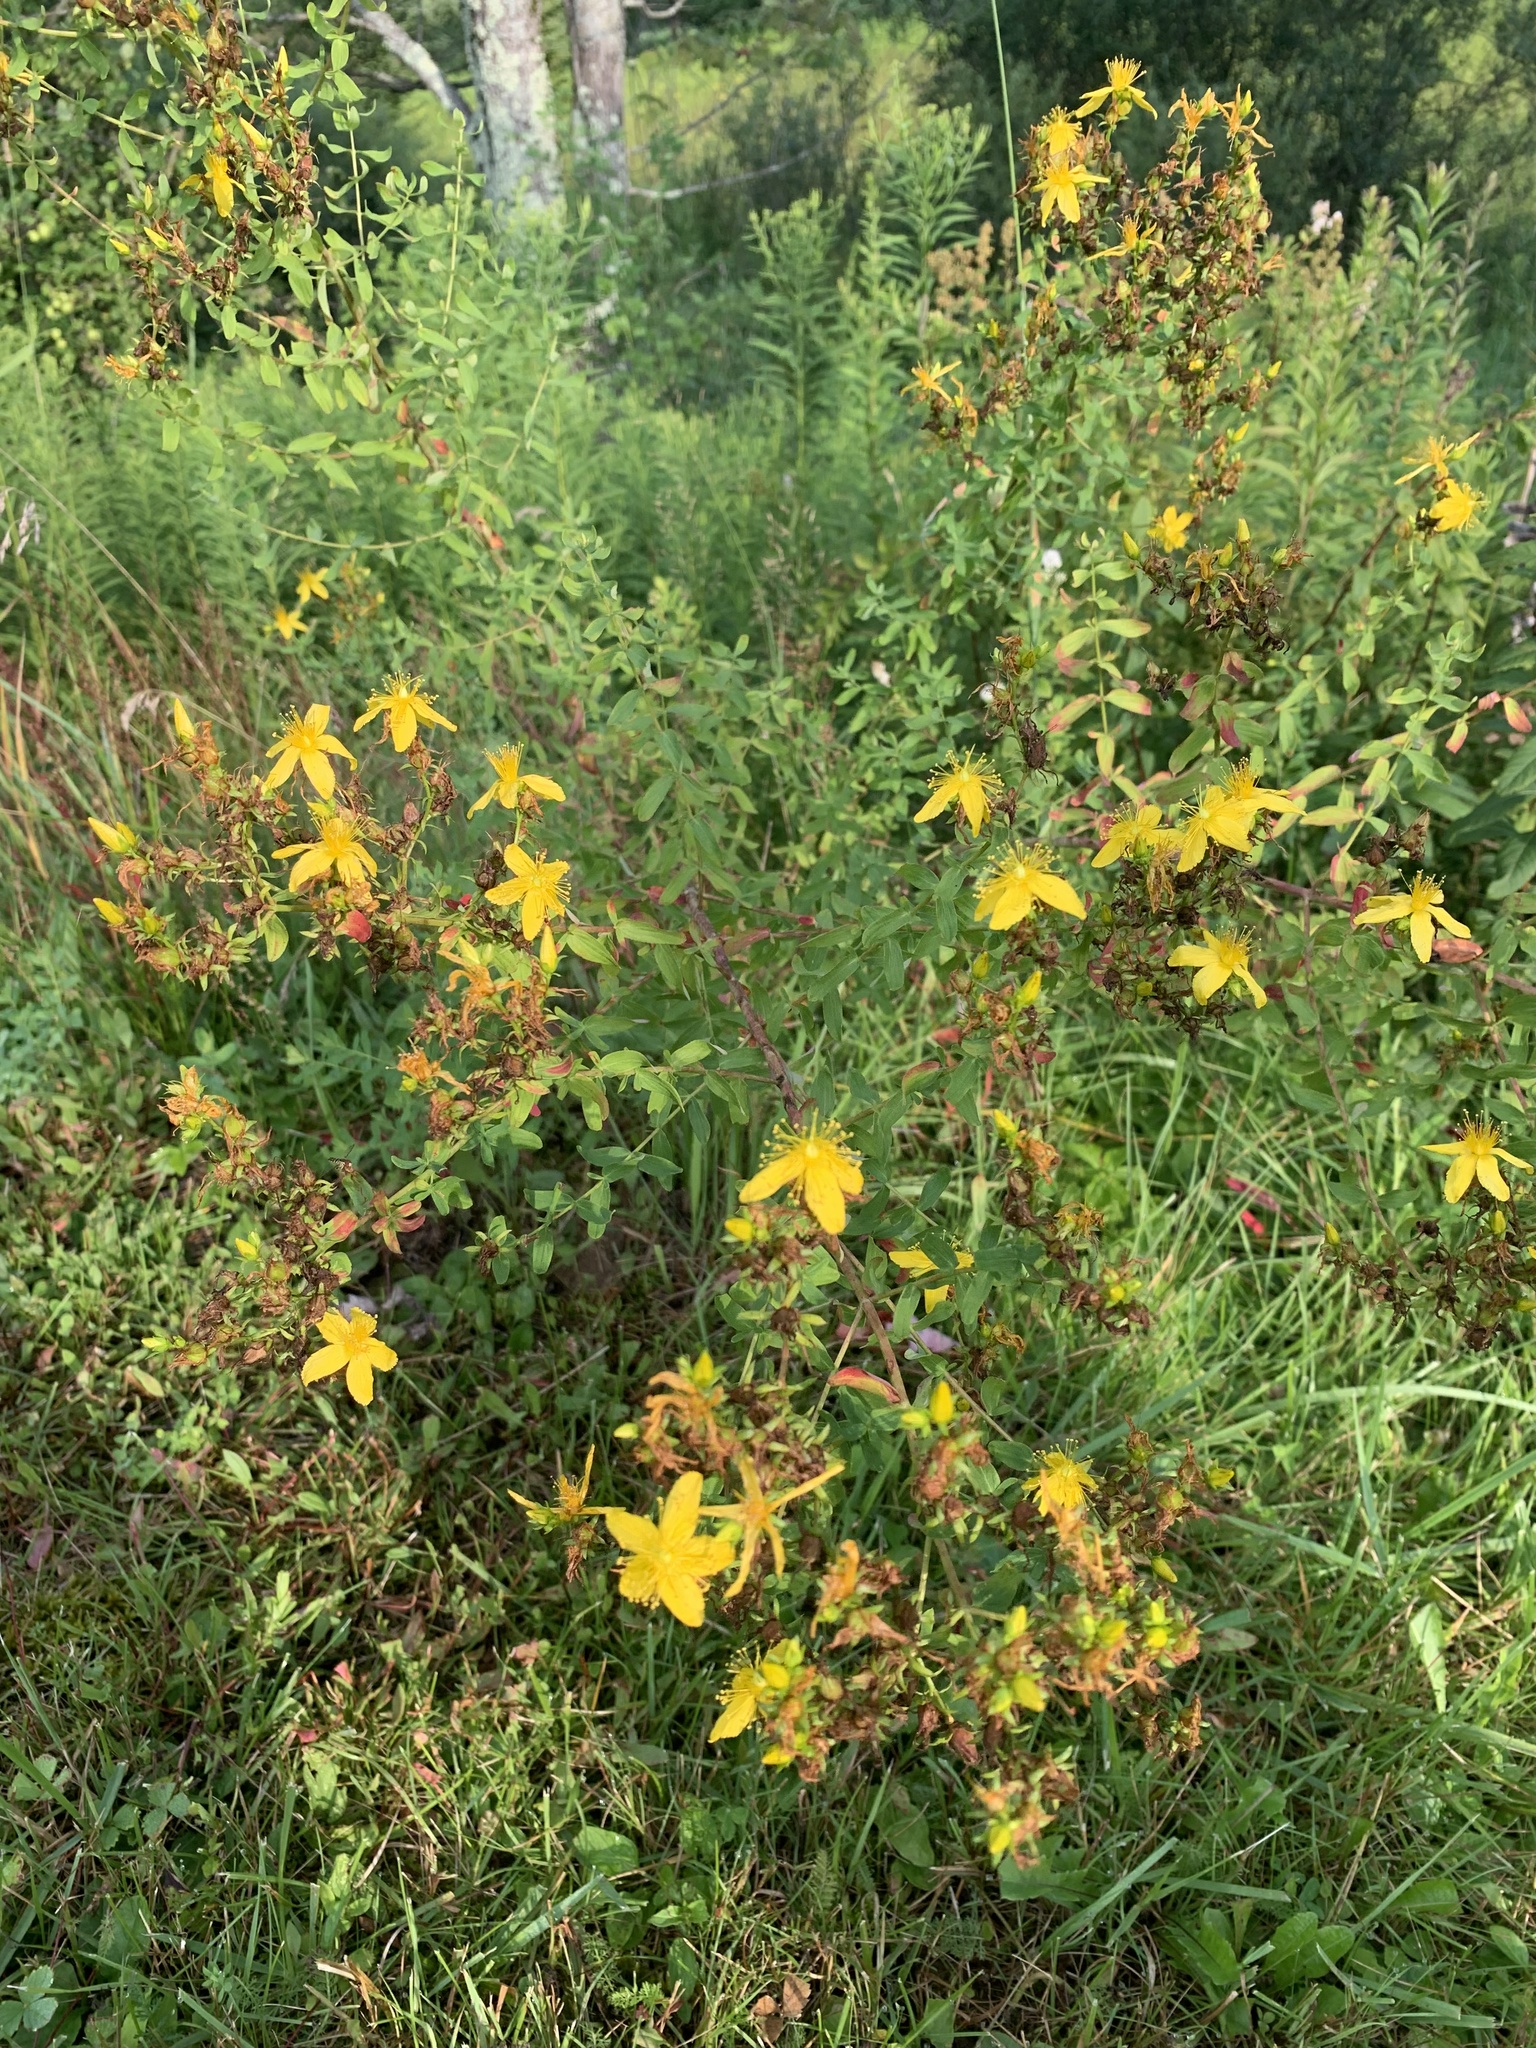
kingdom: Plantae
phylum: Tracheophyta
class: Magnoliopsida
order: Malpighiales
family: Hypericaceae
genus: Hypericum
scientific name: Hypericum perforatum
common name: Common st. johnswort
